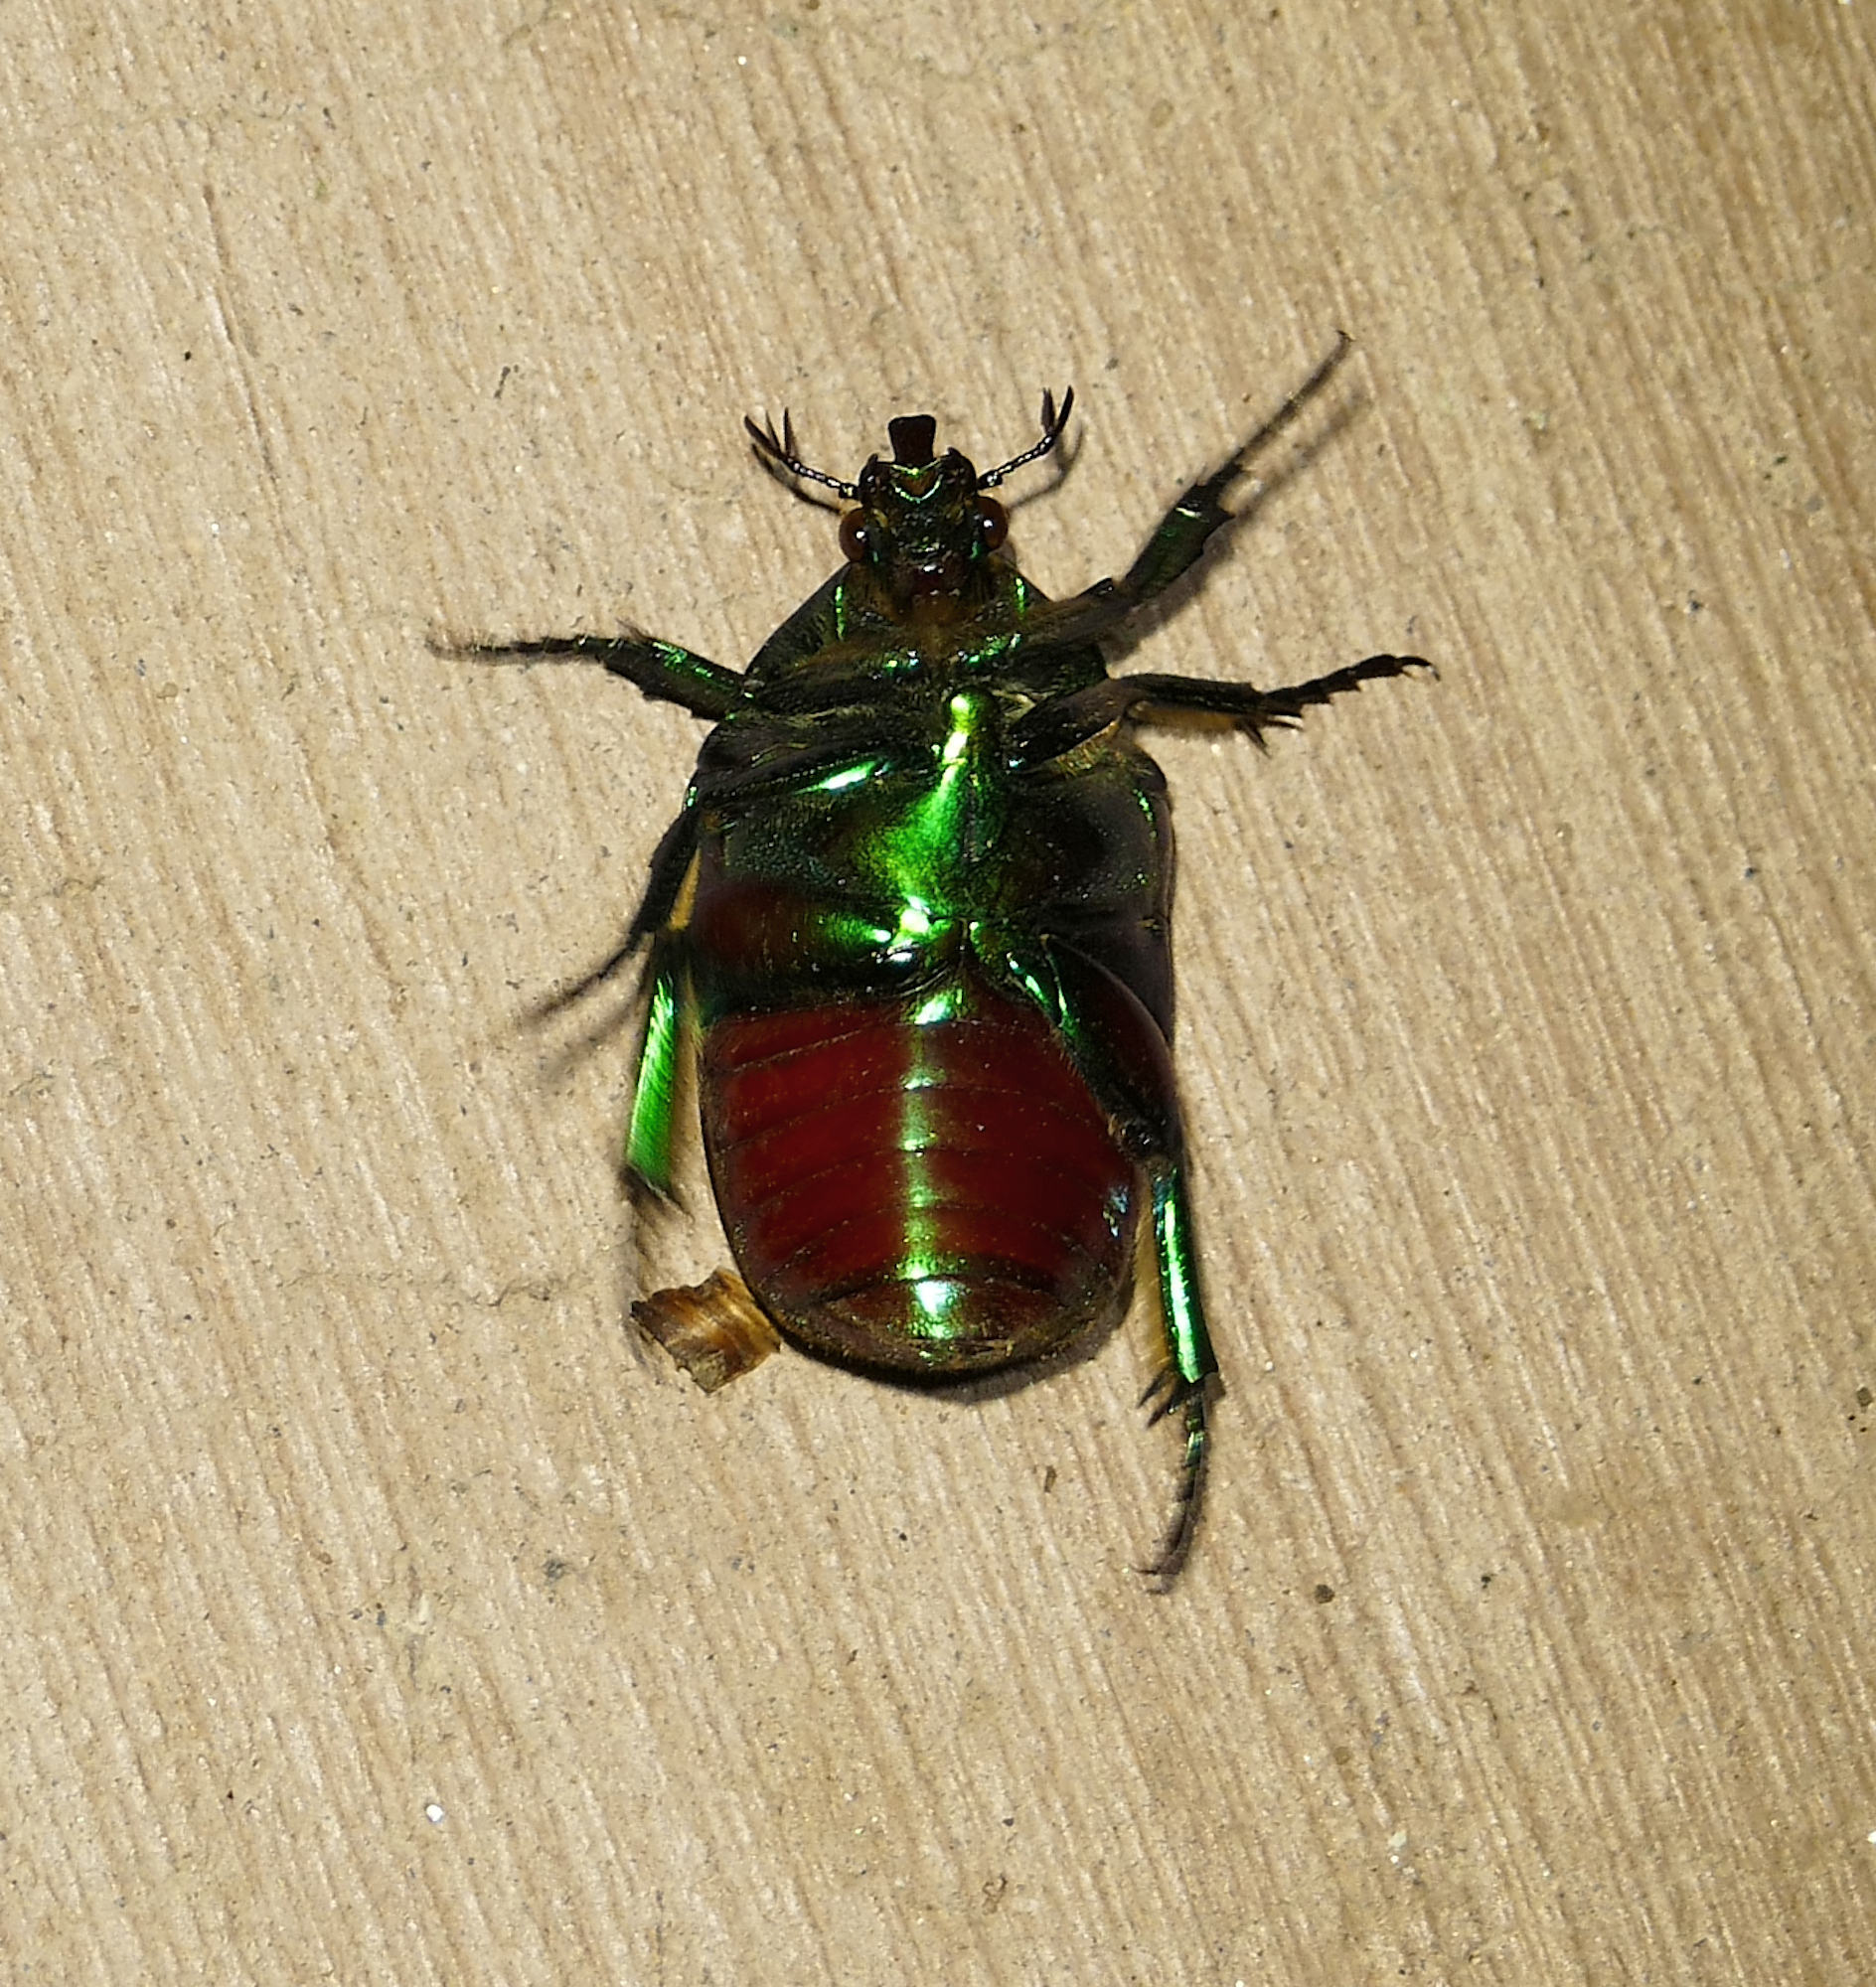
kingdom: Animalia
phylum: Arthropoda
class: Insecta
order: Coleoptera
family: Scarabaeidae
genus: Cotinis
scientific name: Cotinis mutabilis
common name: Figeater beetle
